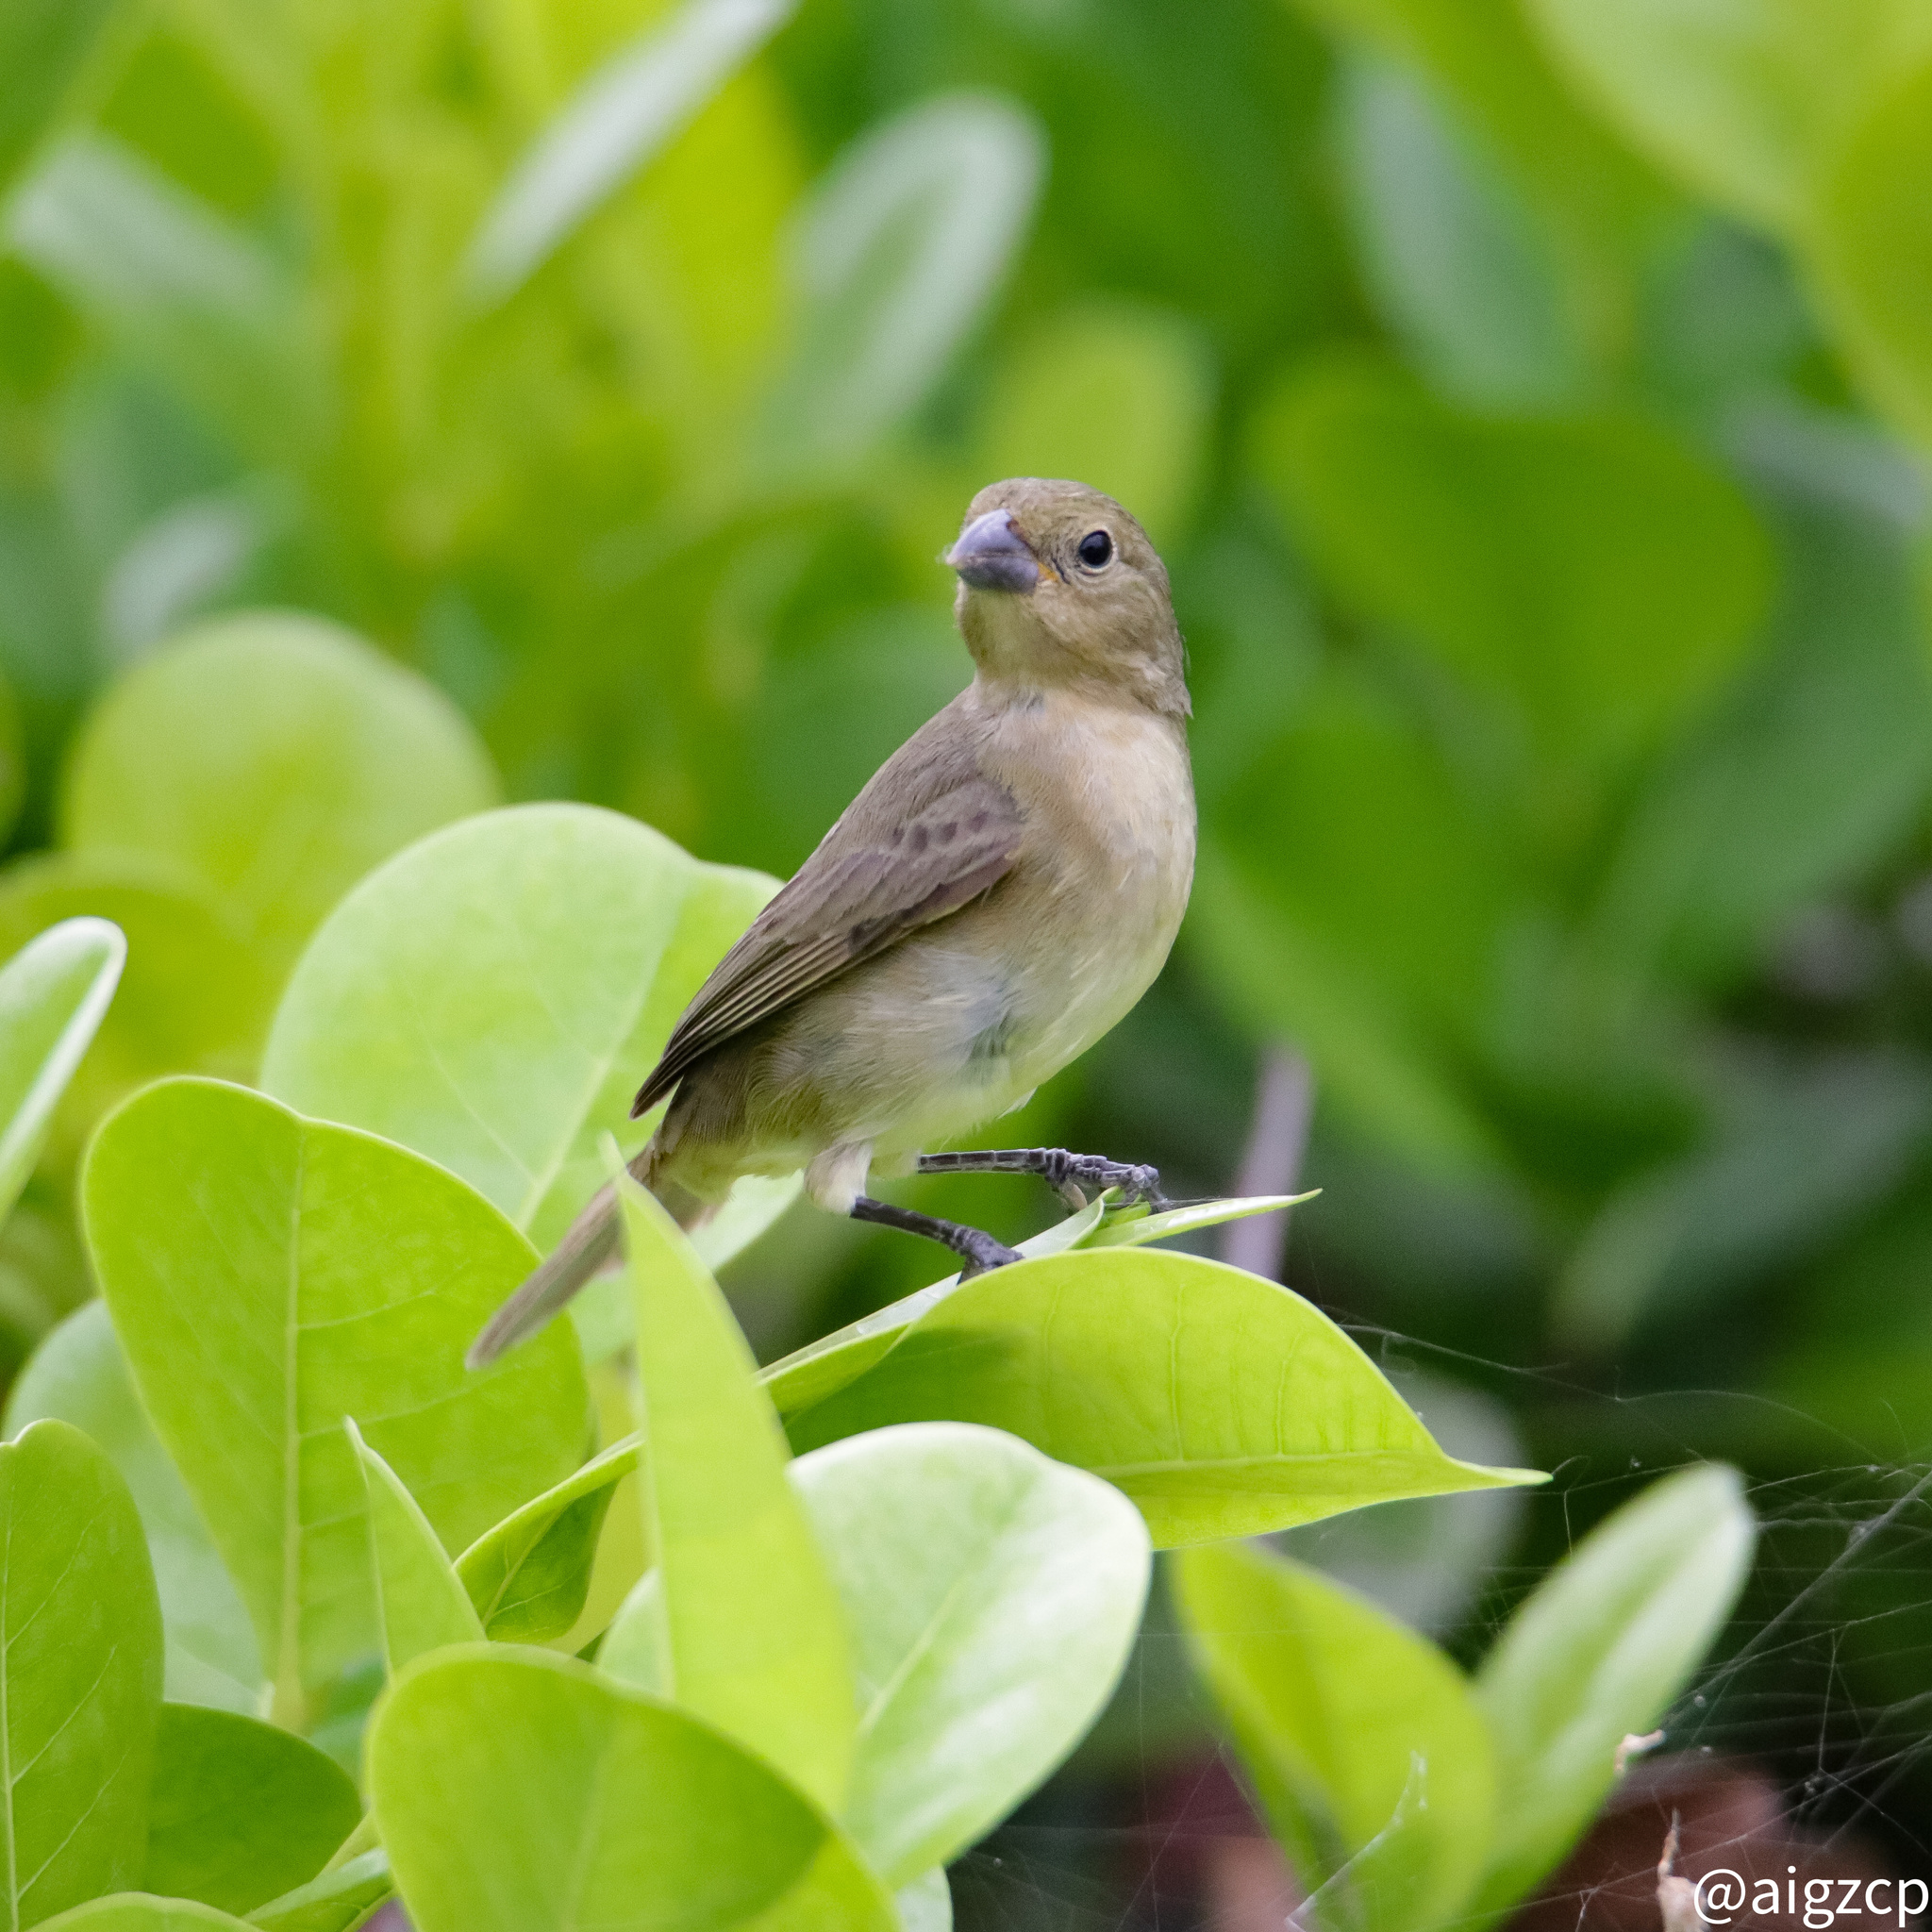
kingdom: Animalia
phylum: Chordata
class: Aves
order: Passeriformes
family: Thraupidae
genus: Sporophila
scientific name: Sporophila nigricollis
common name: Yellow-bellied seedeater
